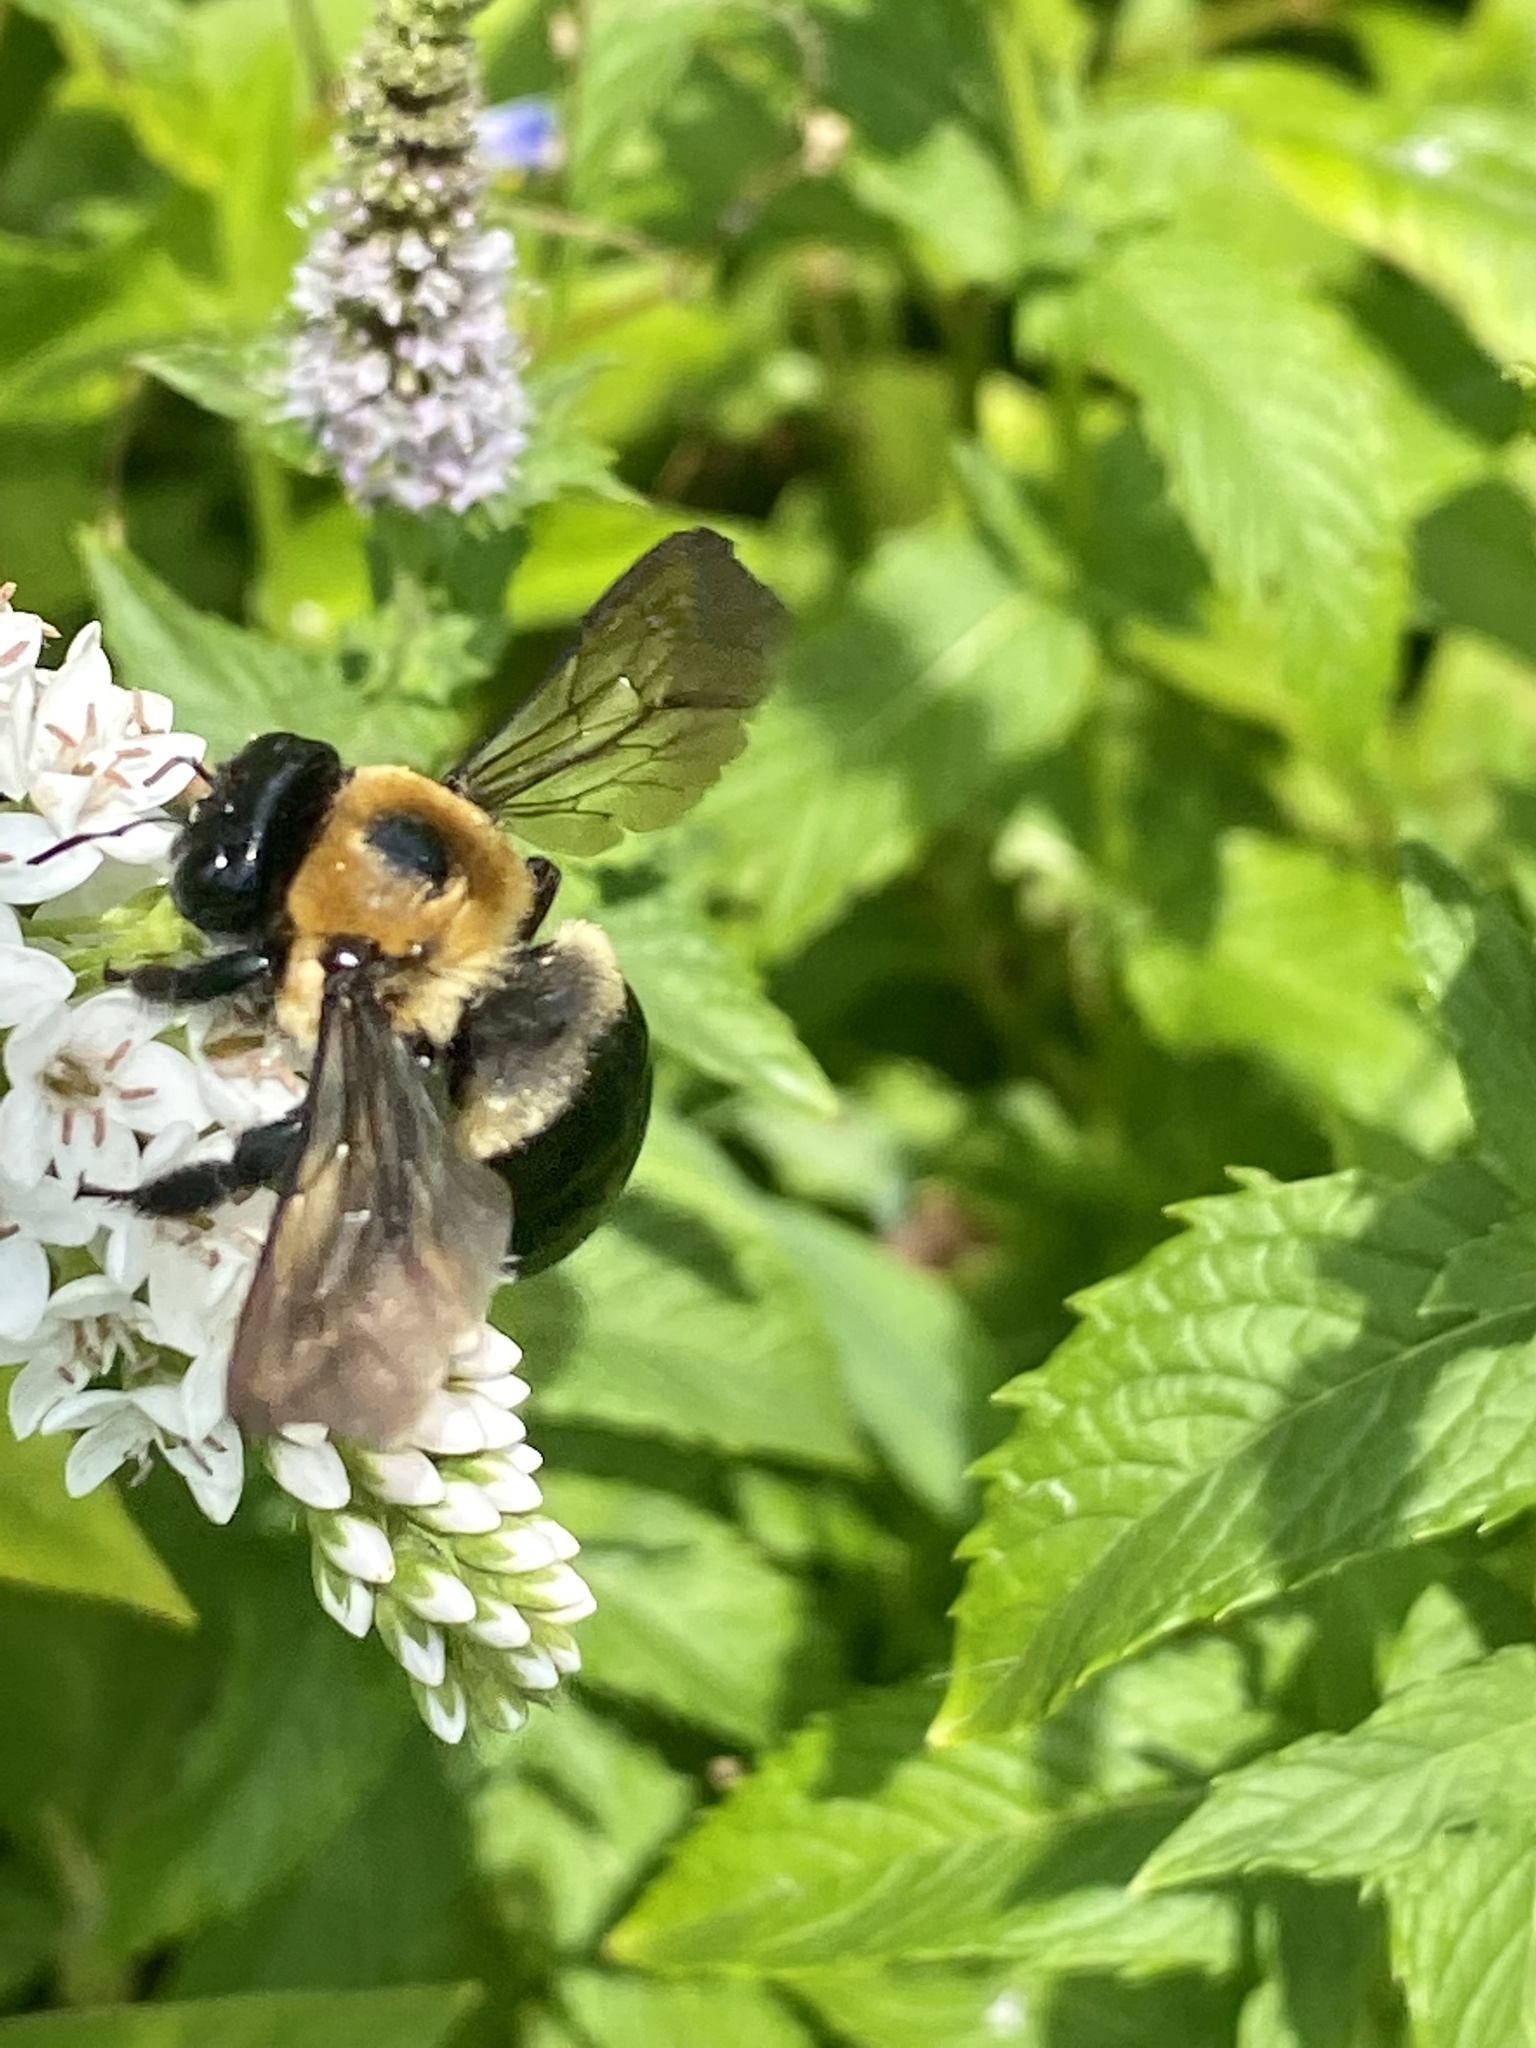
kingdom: Animalia
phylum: Arthropoda
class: Insecta
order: Hymenoptera
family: Apidae
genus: Xylocopa
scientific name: Xylocopa virginica
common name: Carpenter bee
